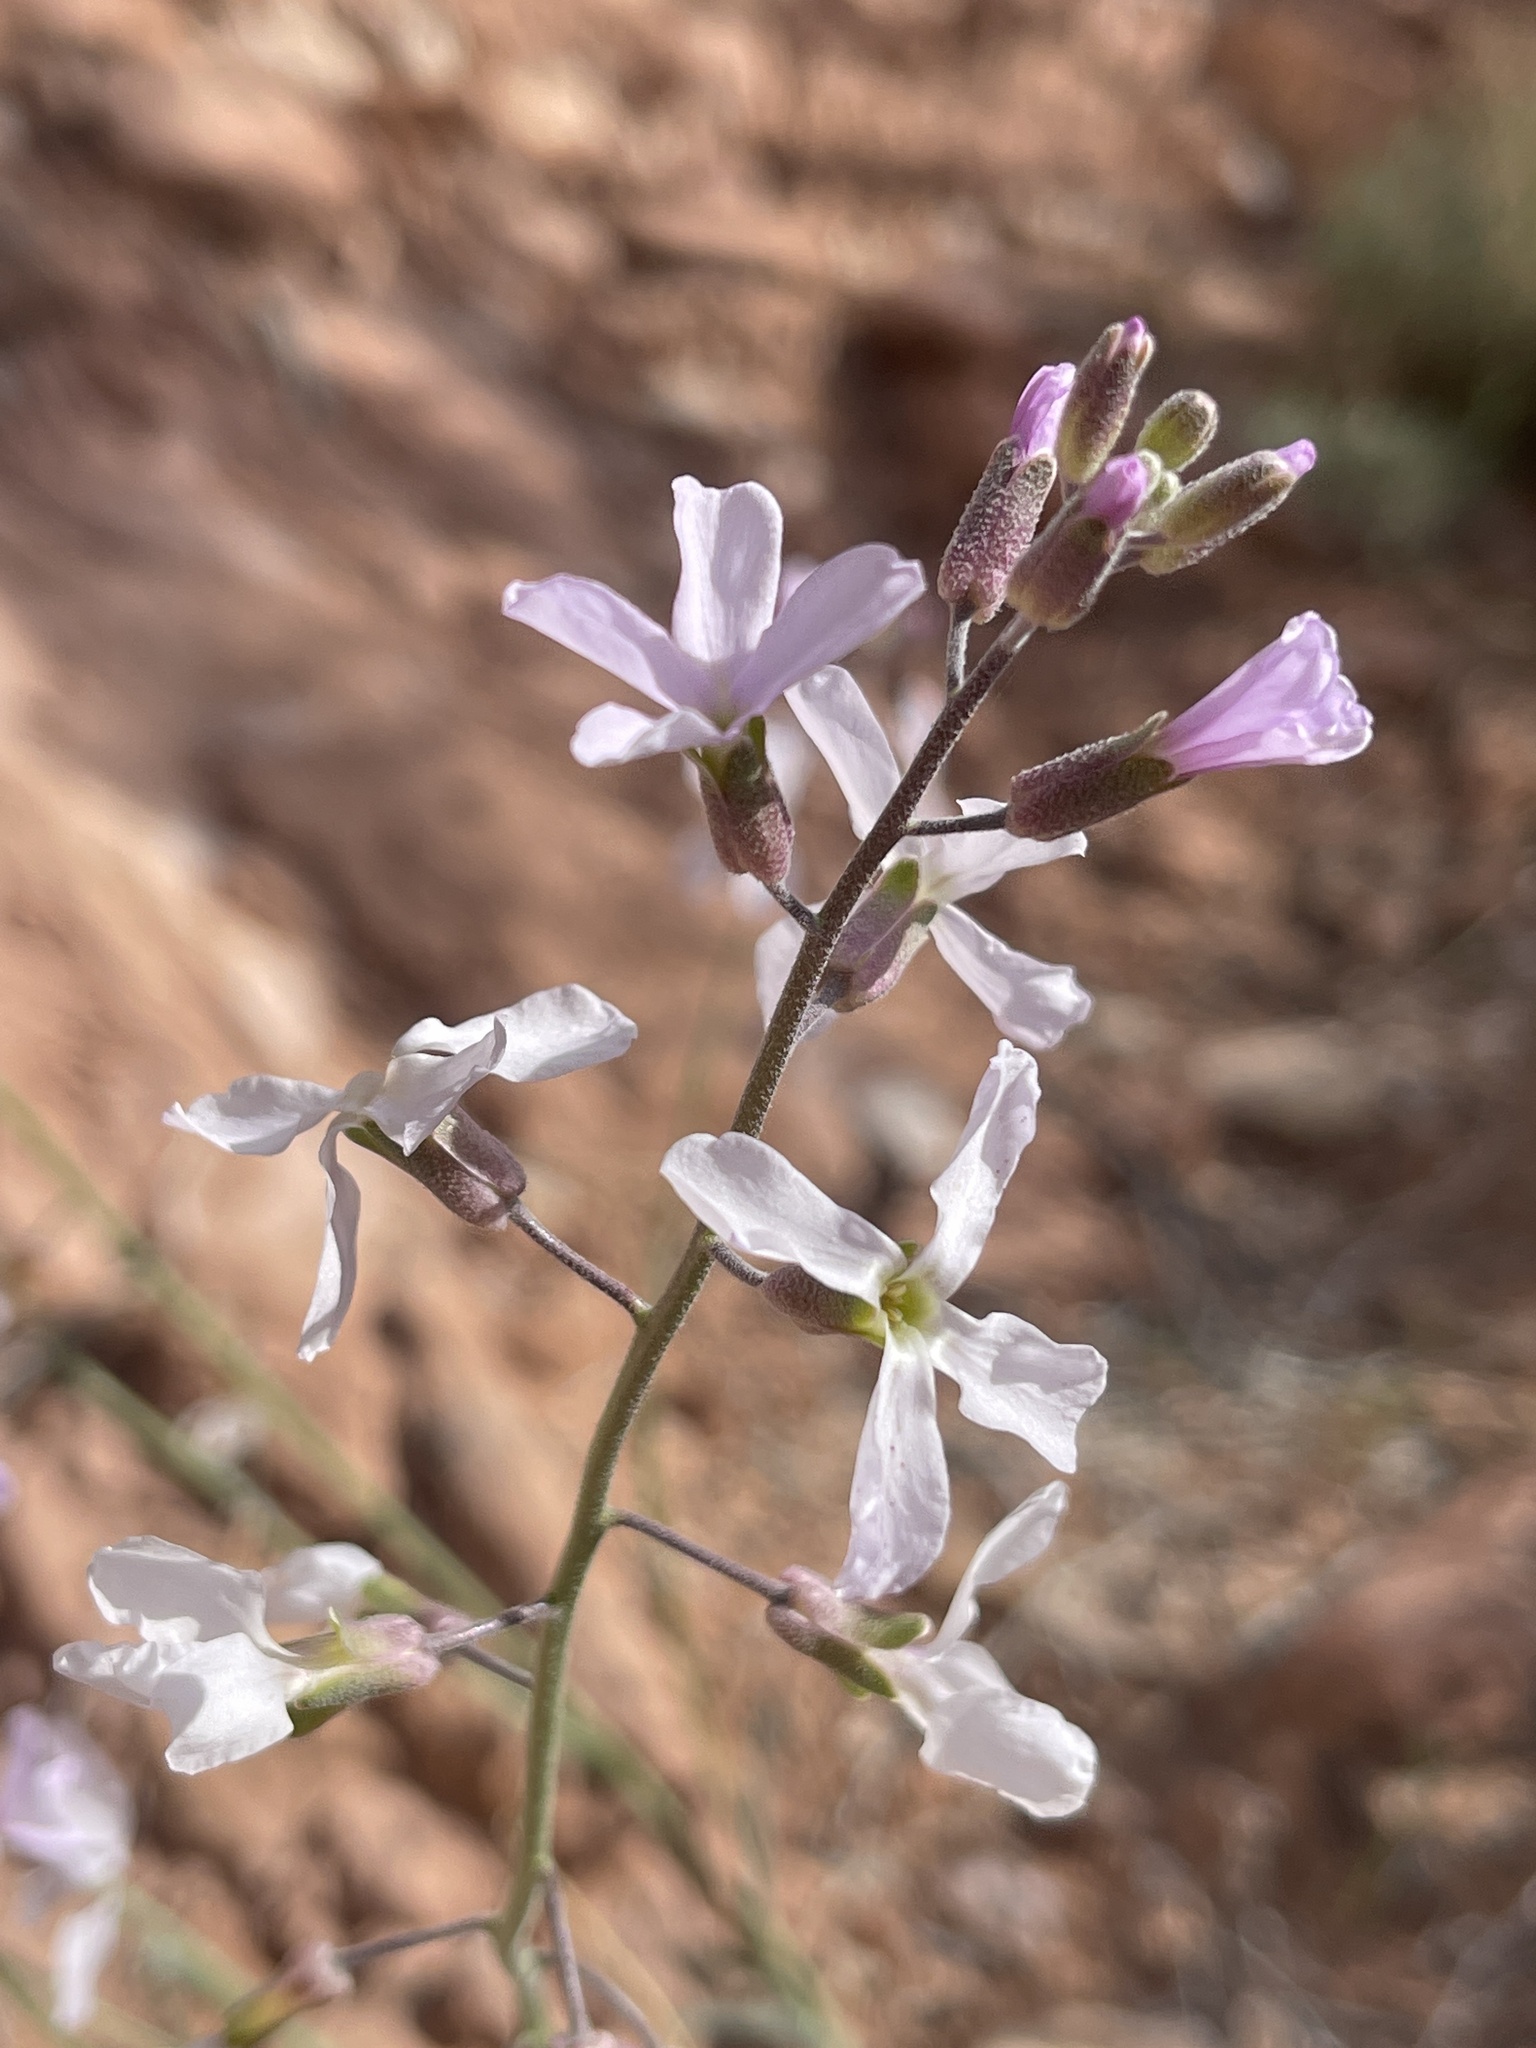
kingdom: Plantae
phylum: Tracheophyta
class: Magnoliopsida
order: Brassicales
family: Brassicaceae
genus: Boechera
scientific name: Boechera formosa
